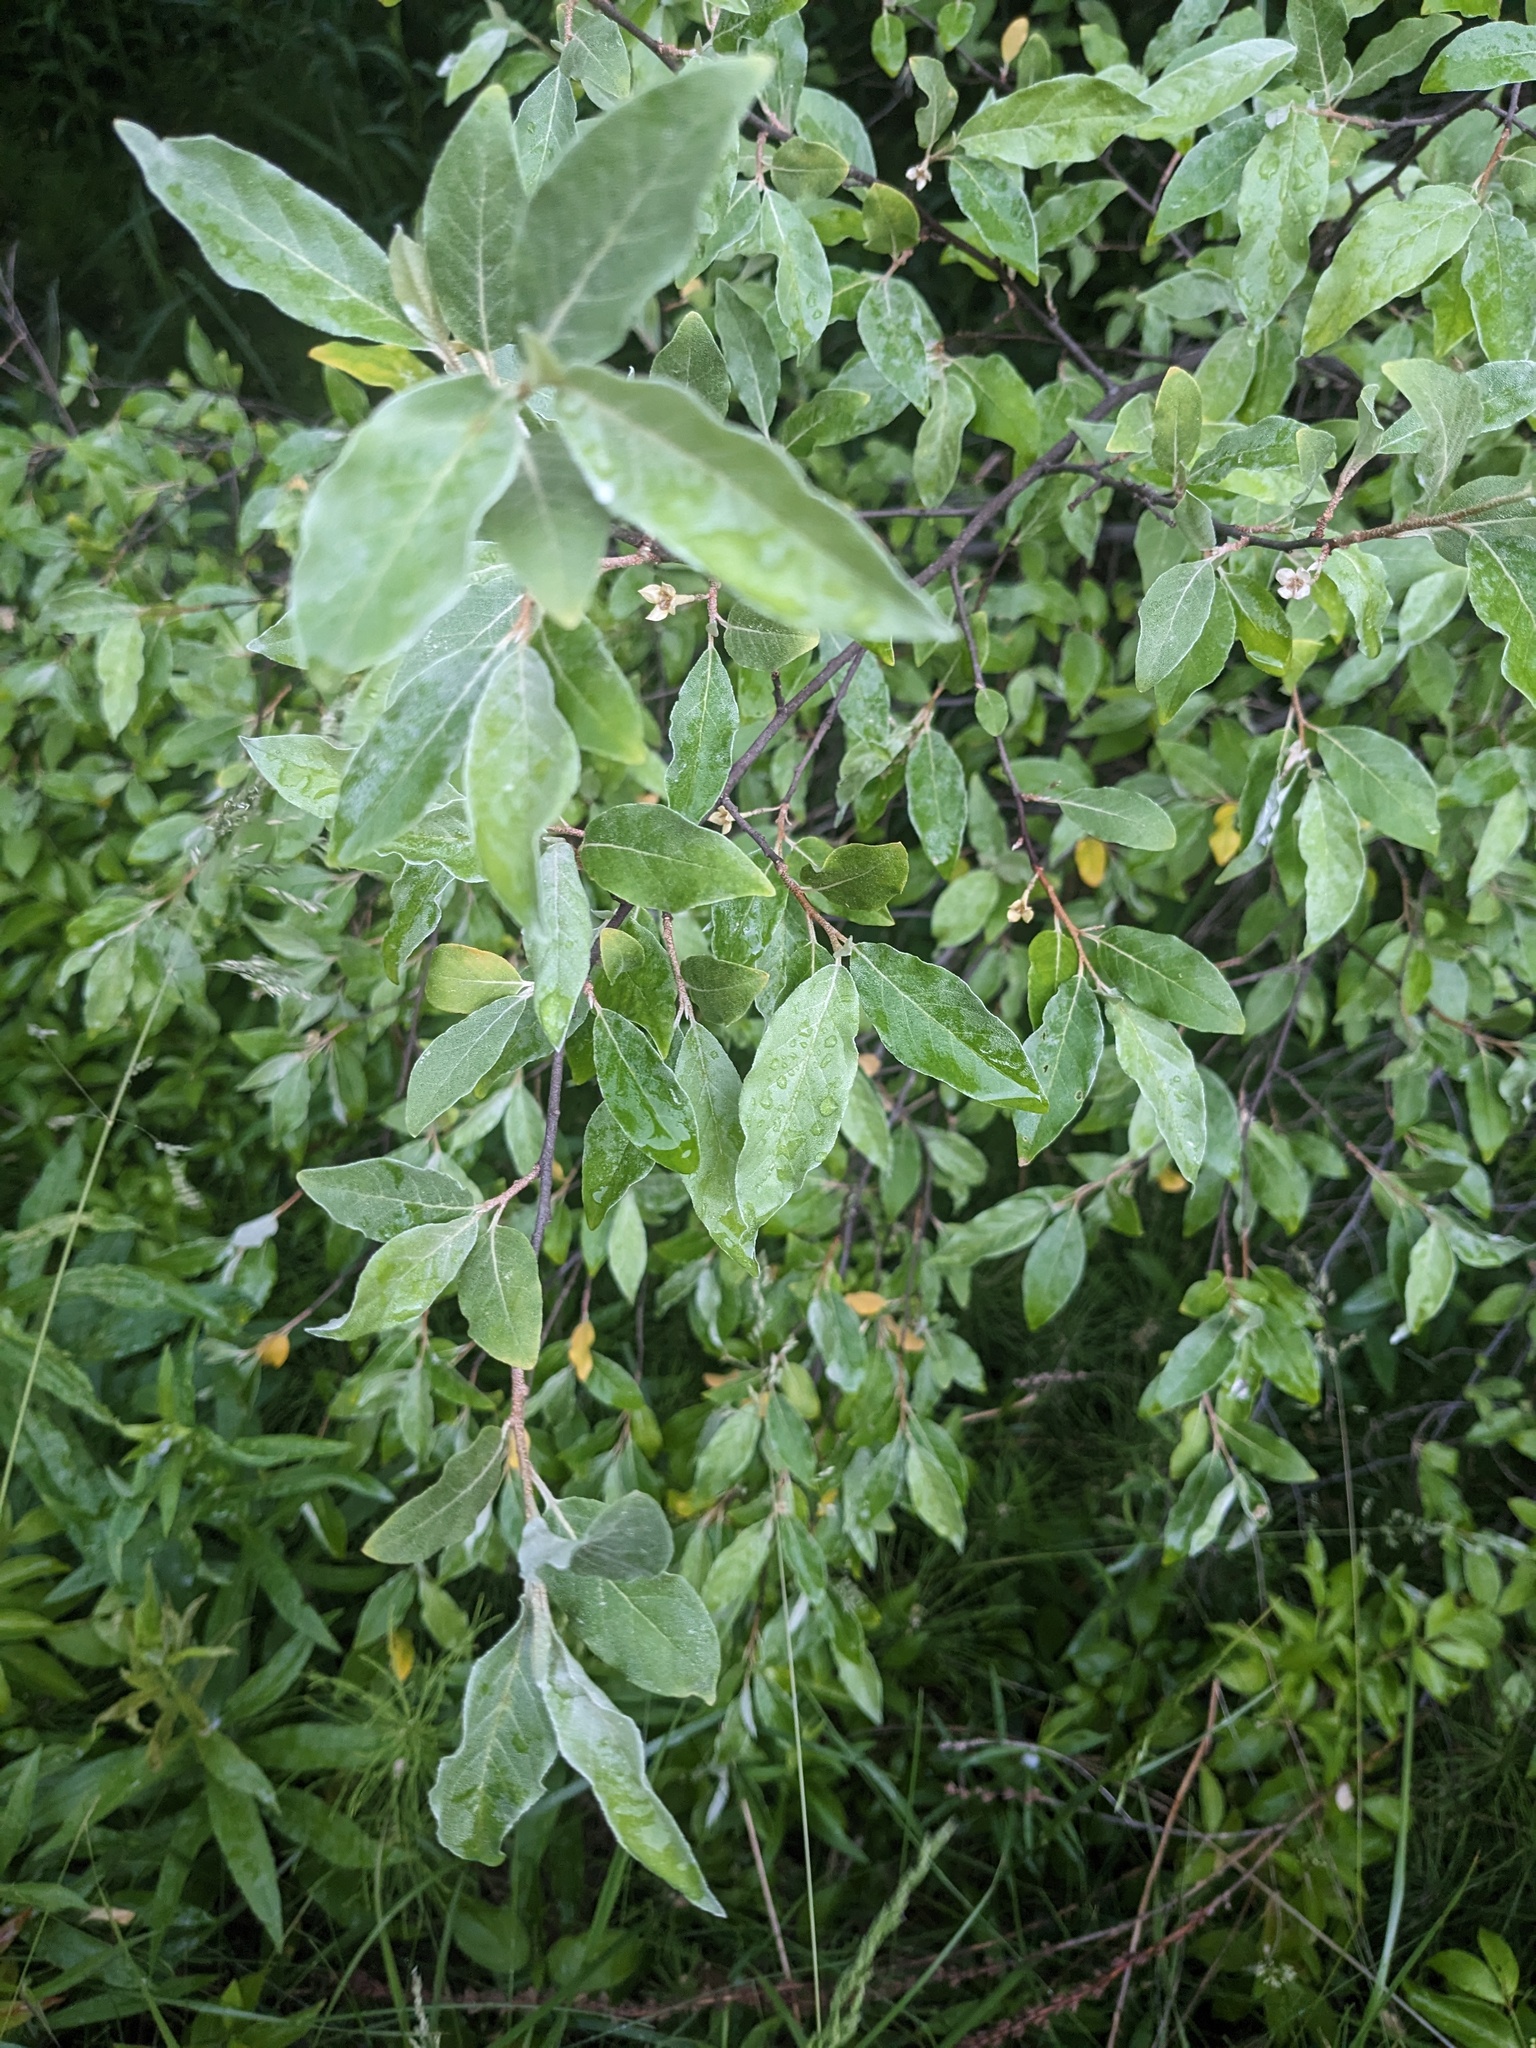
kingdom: Plantae
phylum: Tracheophyta
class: Magnoliopsida
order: Rosales
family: Elaeagnaceae
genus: Elaeagnus
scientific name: Elaeagnus umbellata
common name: Autumn olive
